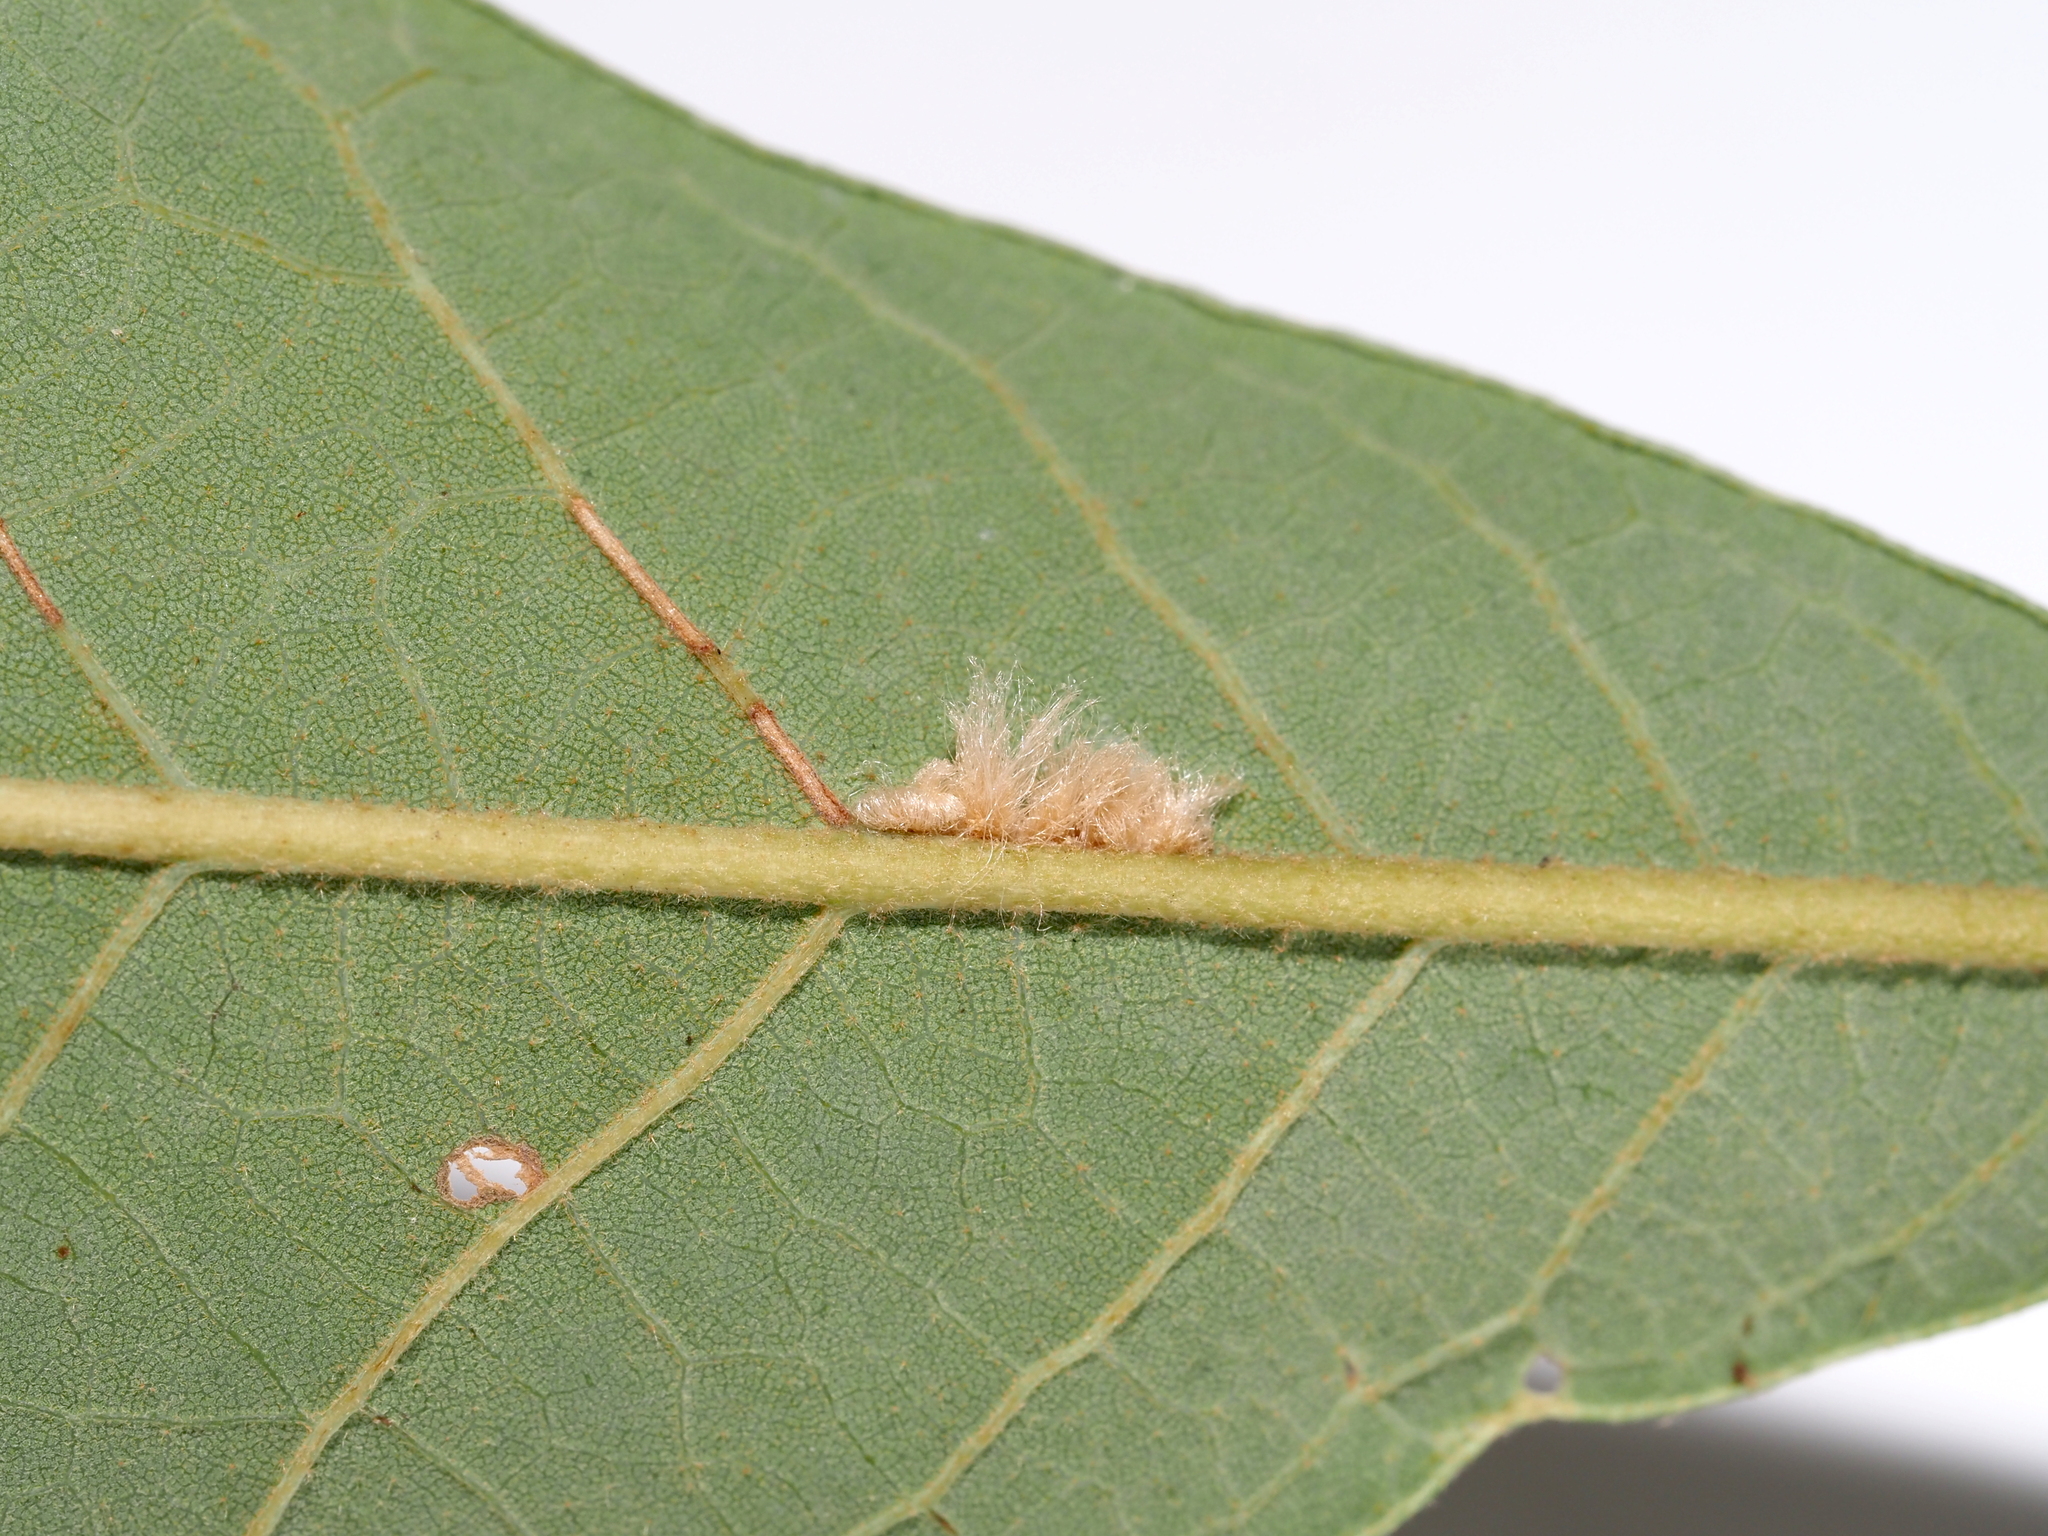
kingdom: Animalia
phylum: Arthropoda
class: Insecta
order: Hymenoptera
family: Cynipidae
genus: Andricus
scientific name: Andricus Druon pattoni
